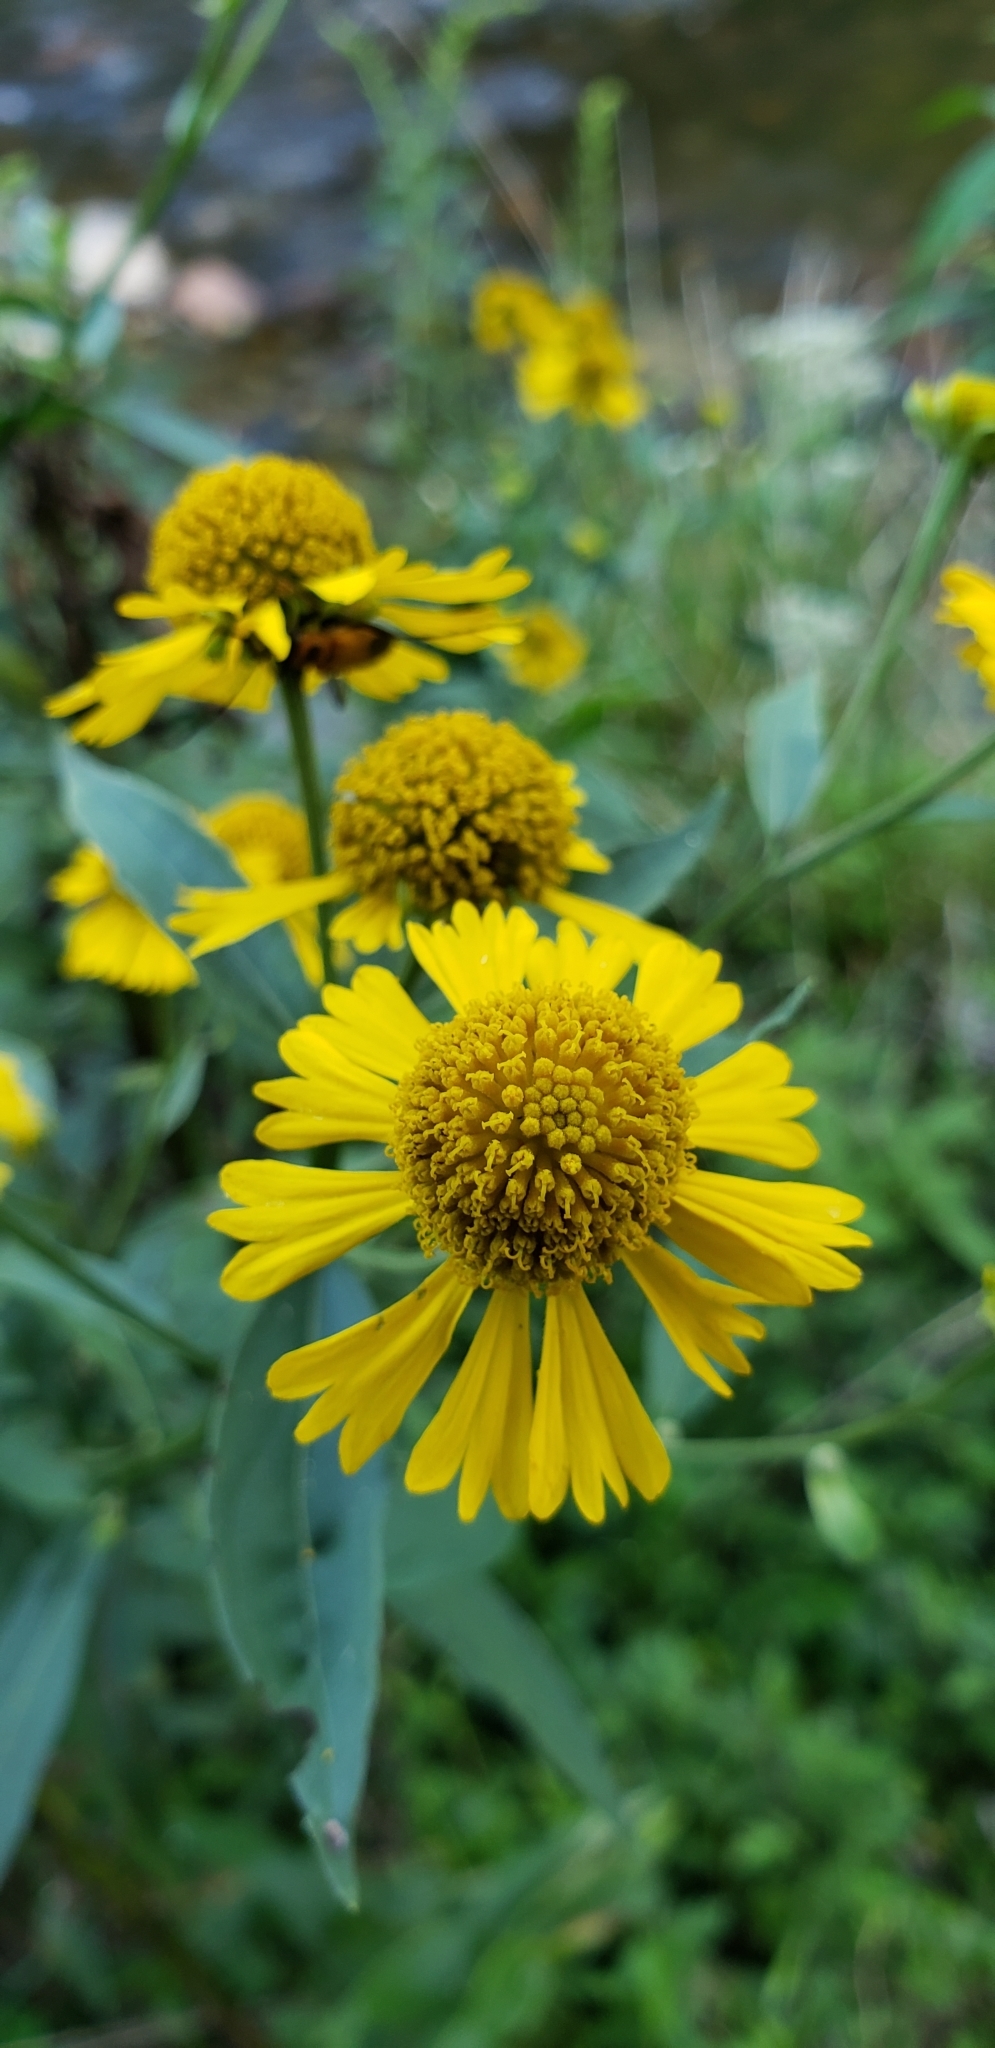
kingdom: Plantae
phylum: Tracheophyta
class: Magnoliopsida
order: Asterales
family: Asteraceae
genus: Helenium
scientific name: Helenium autumnale
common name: Sneezeweed
